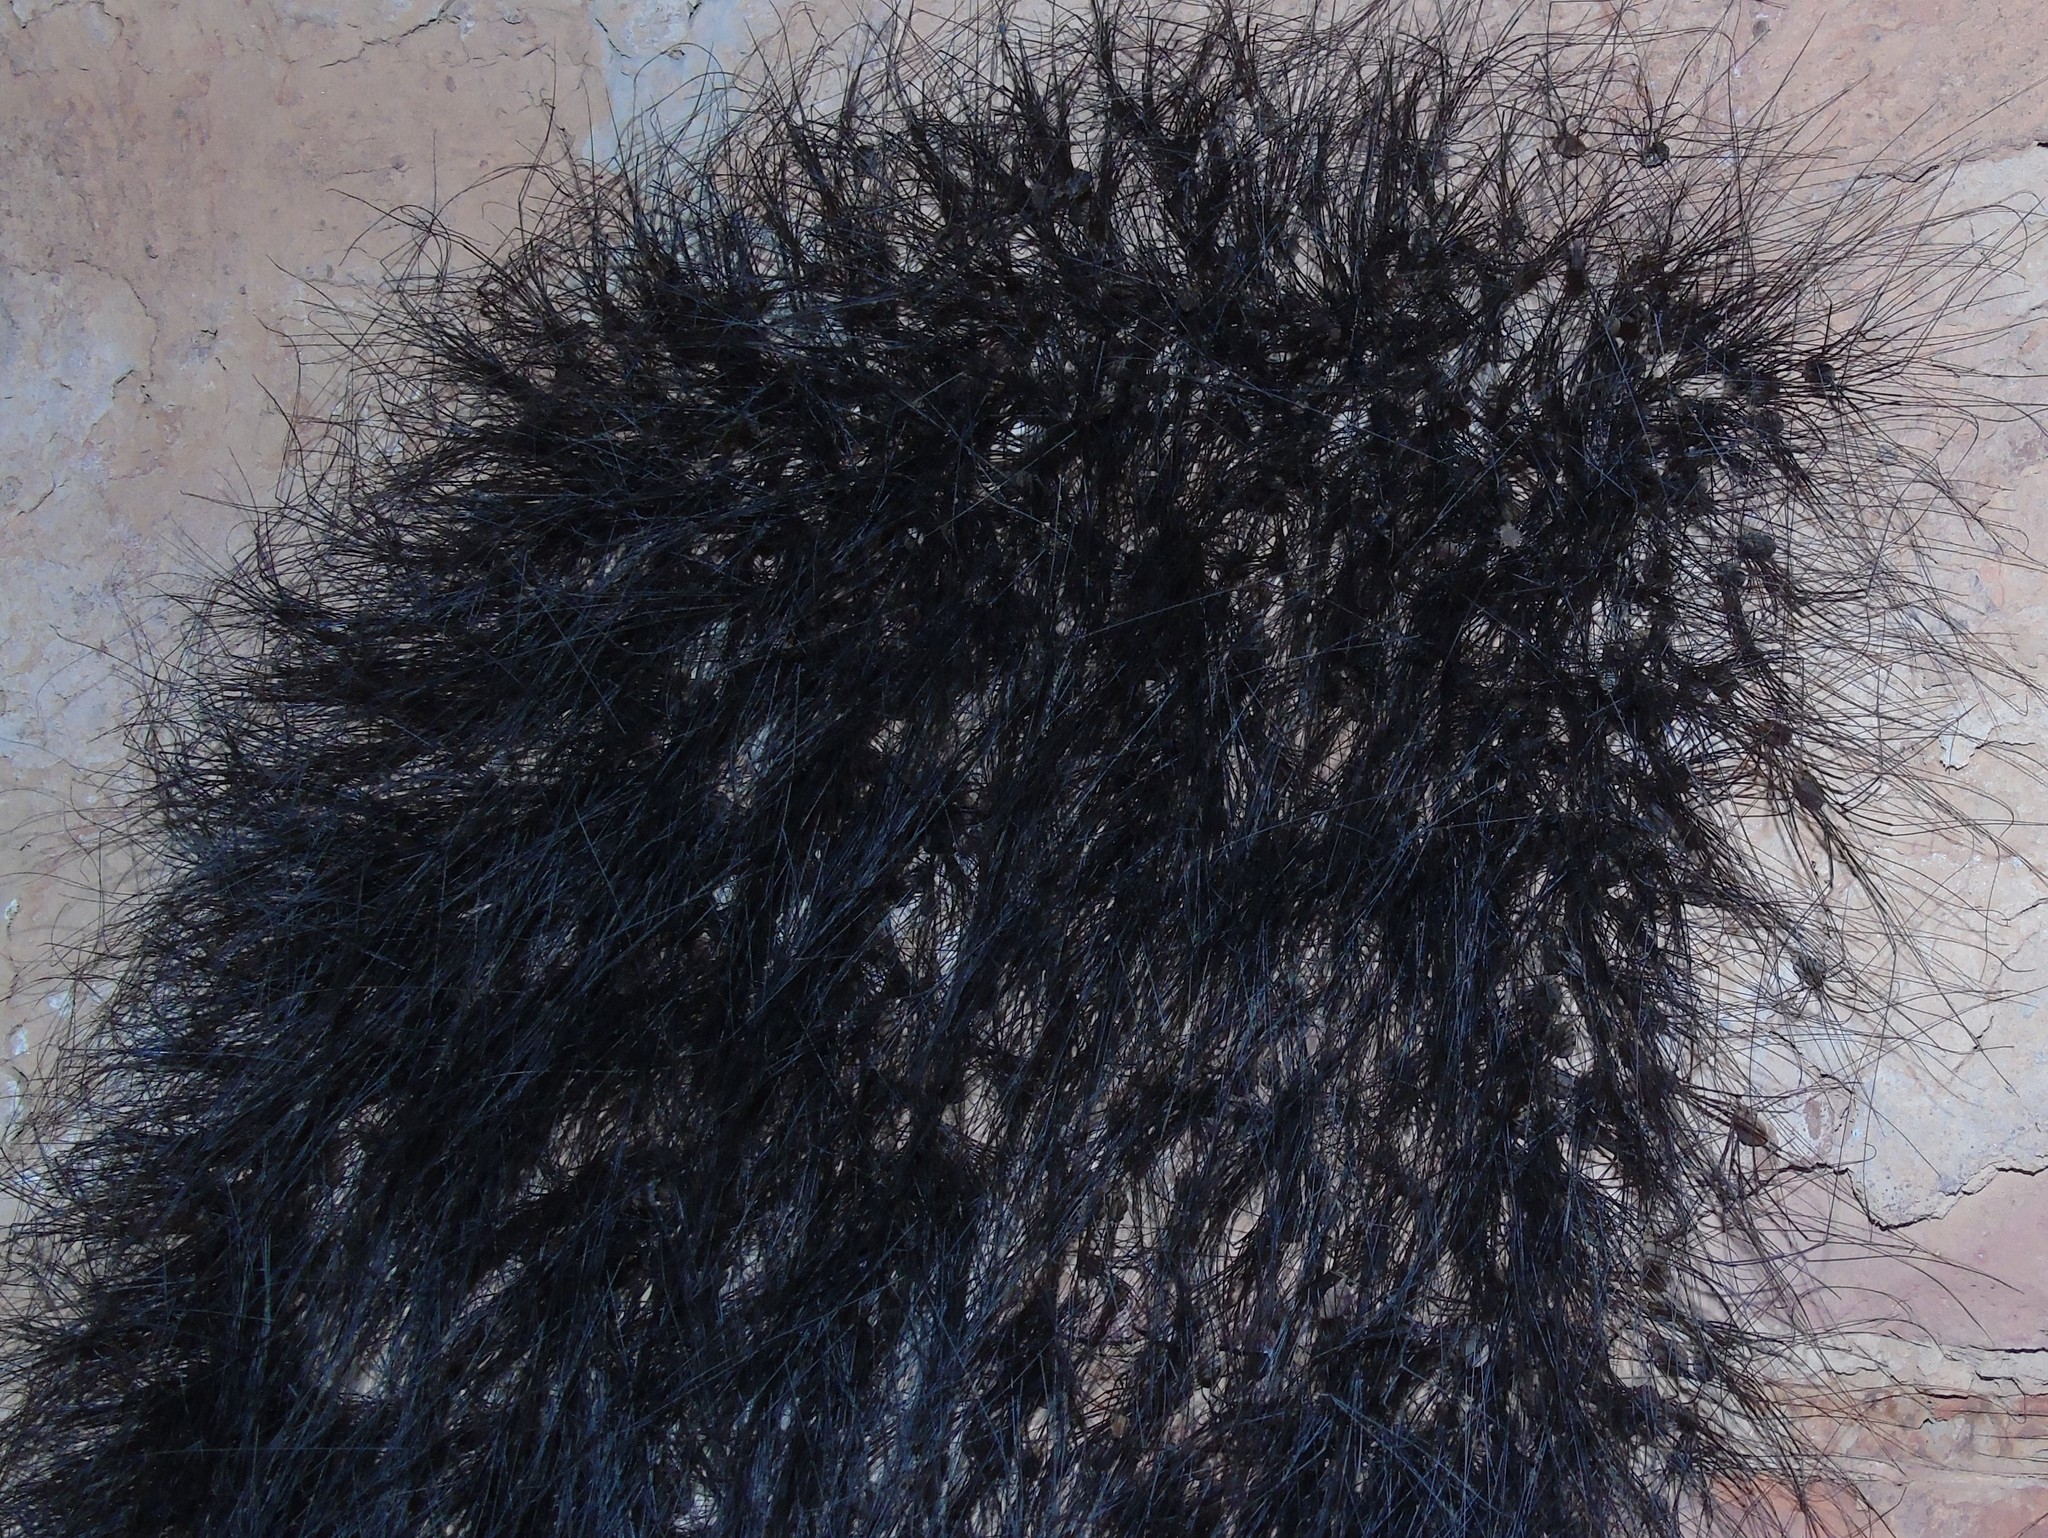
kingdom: Animalia
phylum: Arthropoda
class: Arachnida
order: Opiliones
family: Sclerosomatidae
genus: Leiobunum
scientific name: Leiobunum
